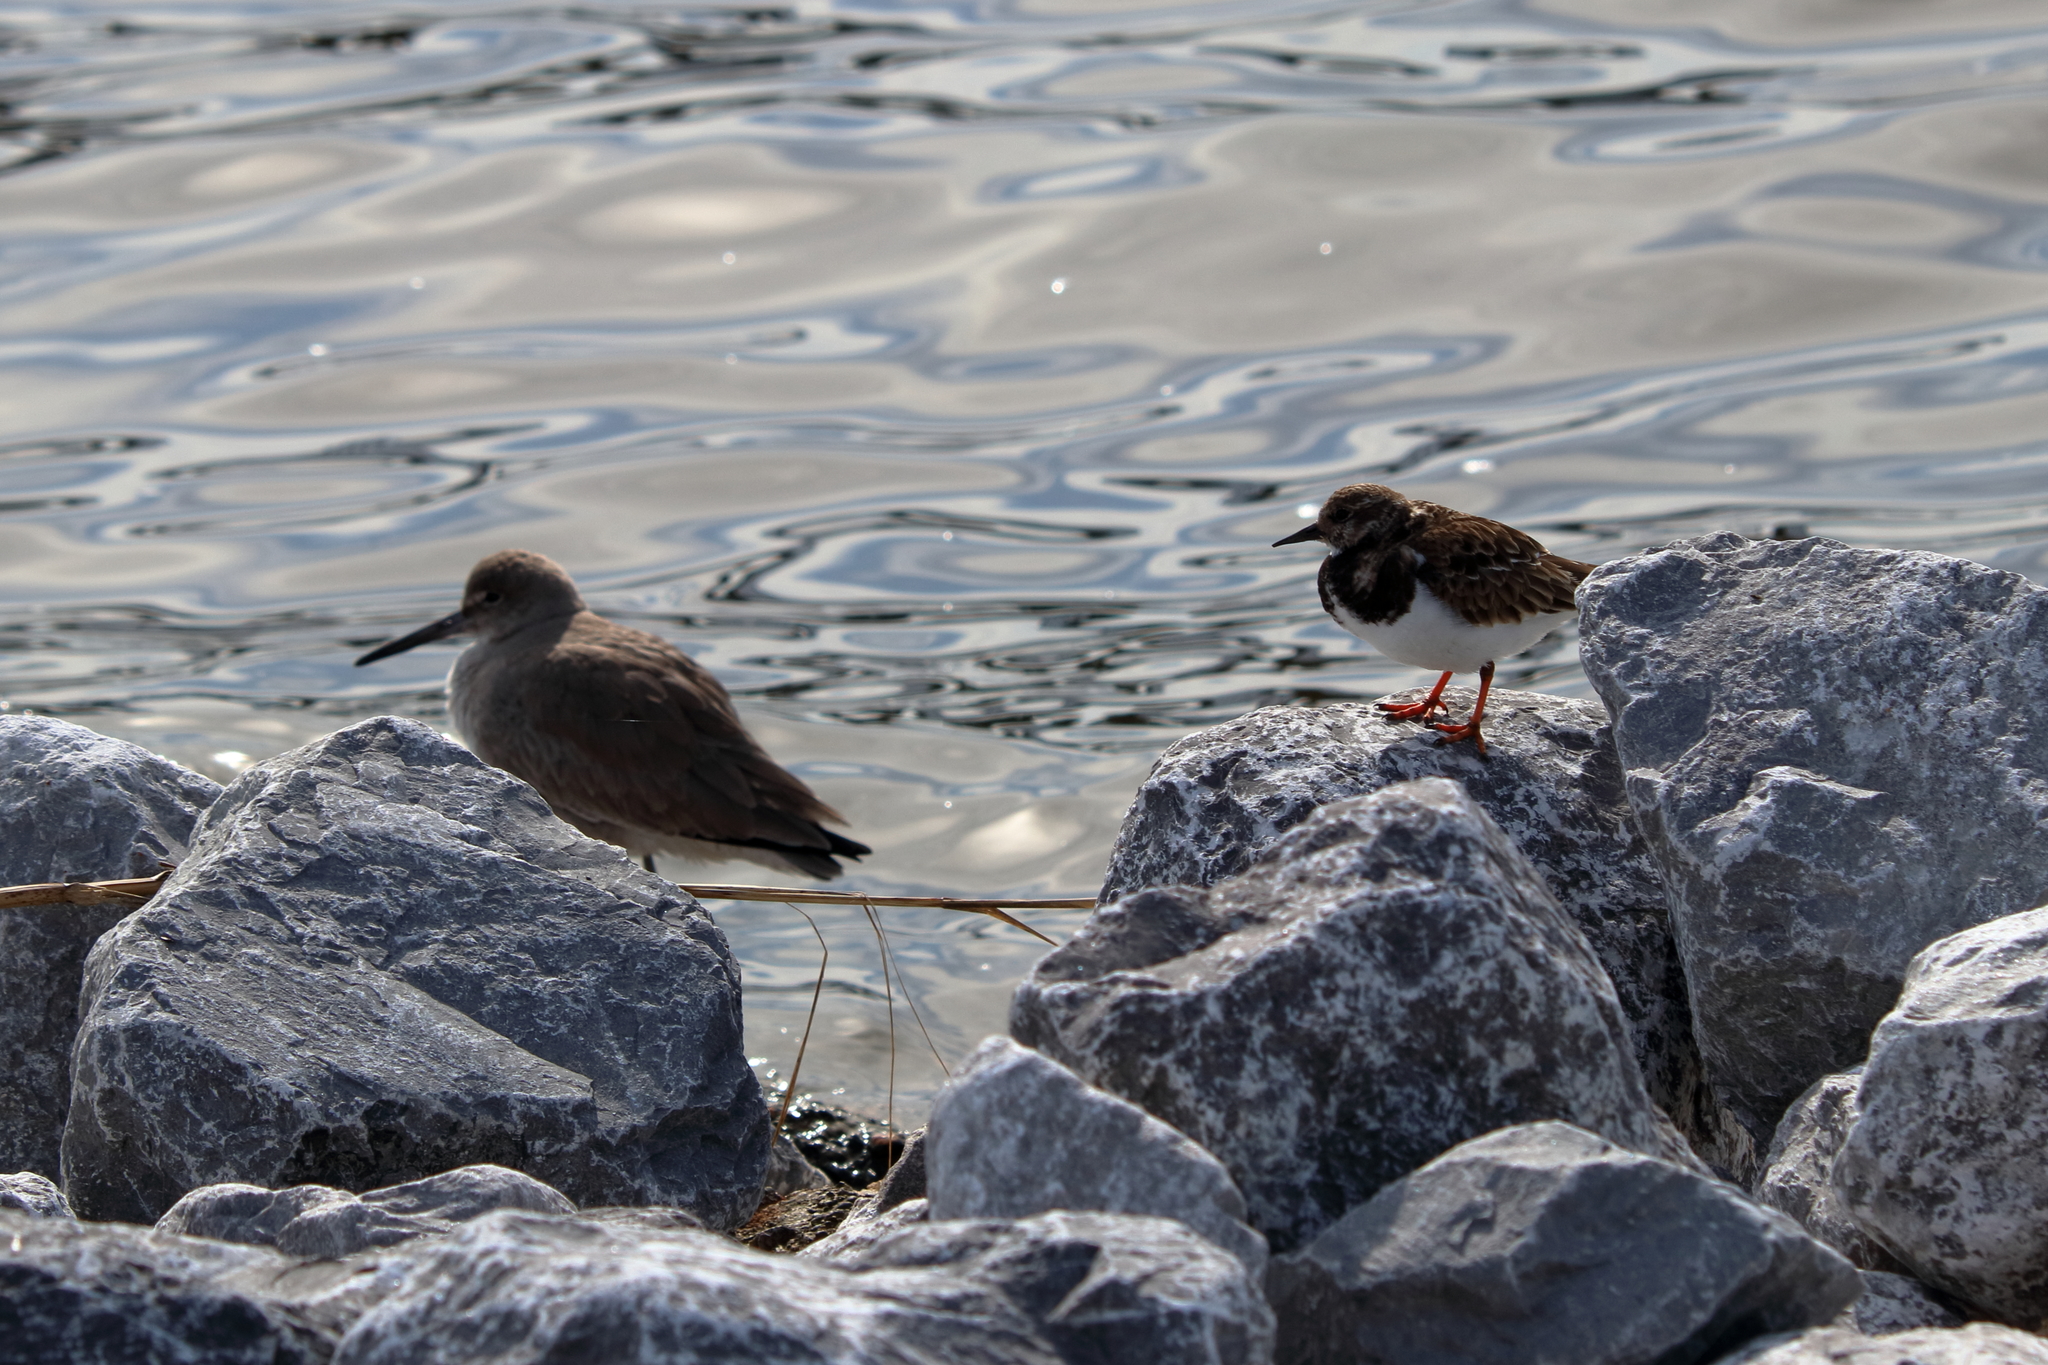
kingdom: Animalia
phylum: Chordata
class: Aves
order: Charadriiformes
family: Scolopacidae
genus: Arenaria
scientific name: Arenaria interpres
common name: Ruddy turnstone
